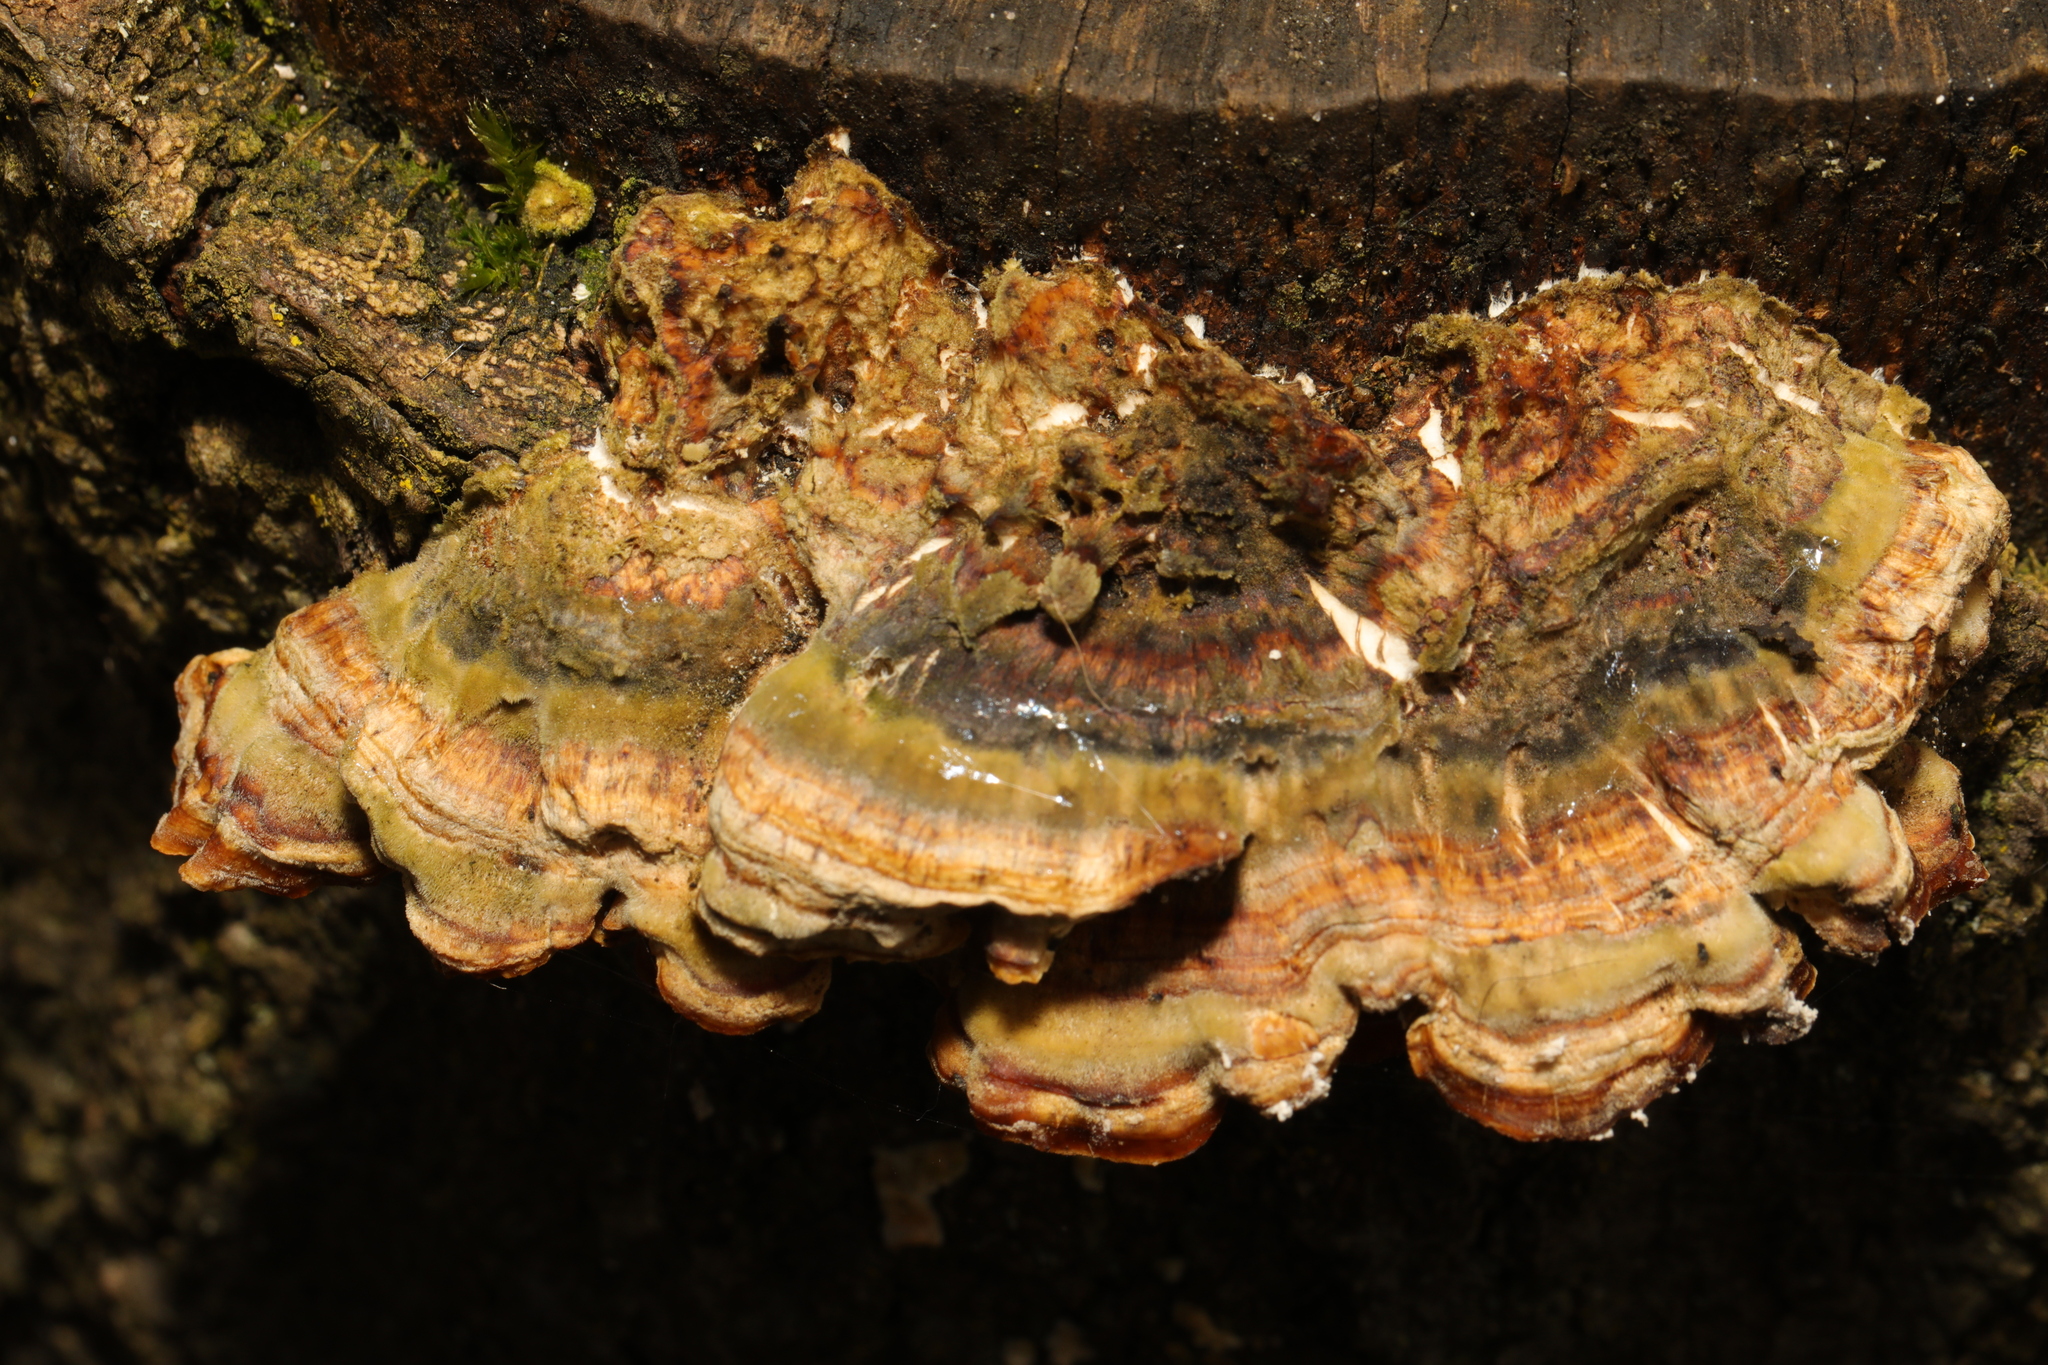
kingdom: Fungi
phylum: Basidiomycota
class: Agaricomycetes
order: Polyporales
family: Polyporaceae
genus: Trametes
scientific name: Trametes versicolor
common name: Turkeytail
